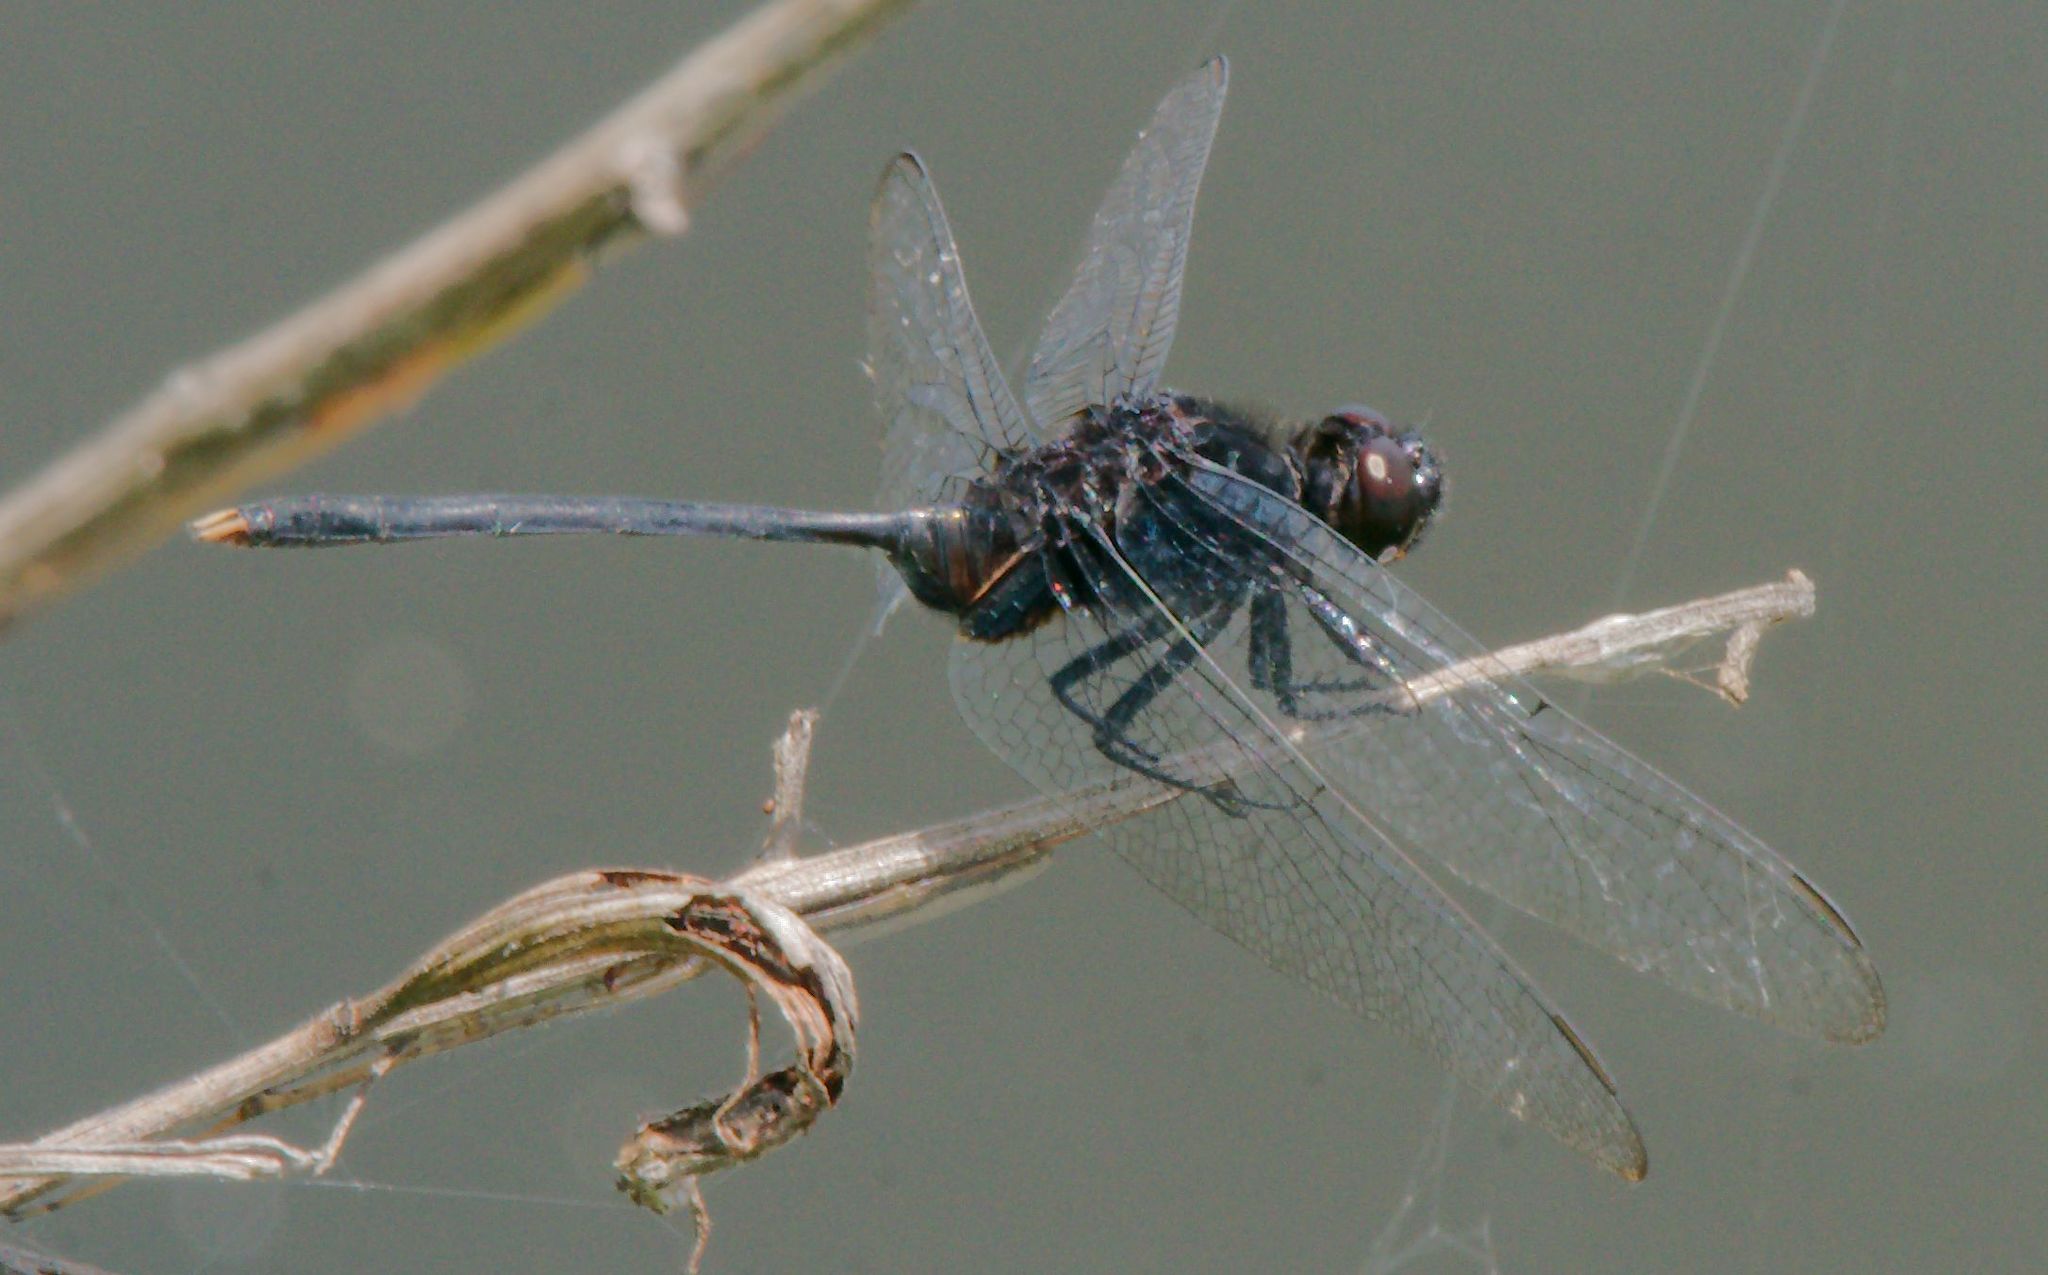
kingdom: Animalia
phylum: Arthropoda
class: Insecta
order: Odonata
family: Libellulidae
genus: Erythemis
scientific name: Erythemis plebeja
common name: Pin-tailed pondhawk
